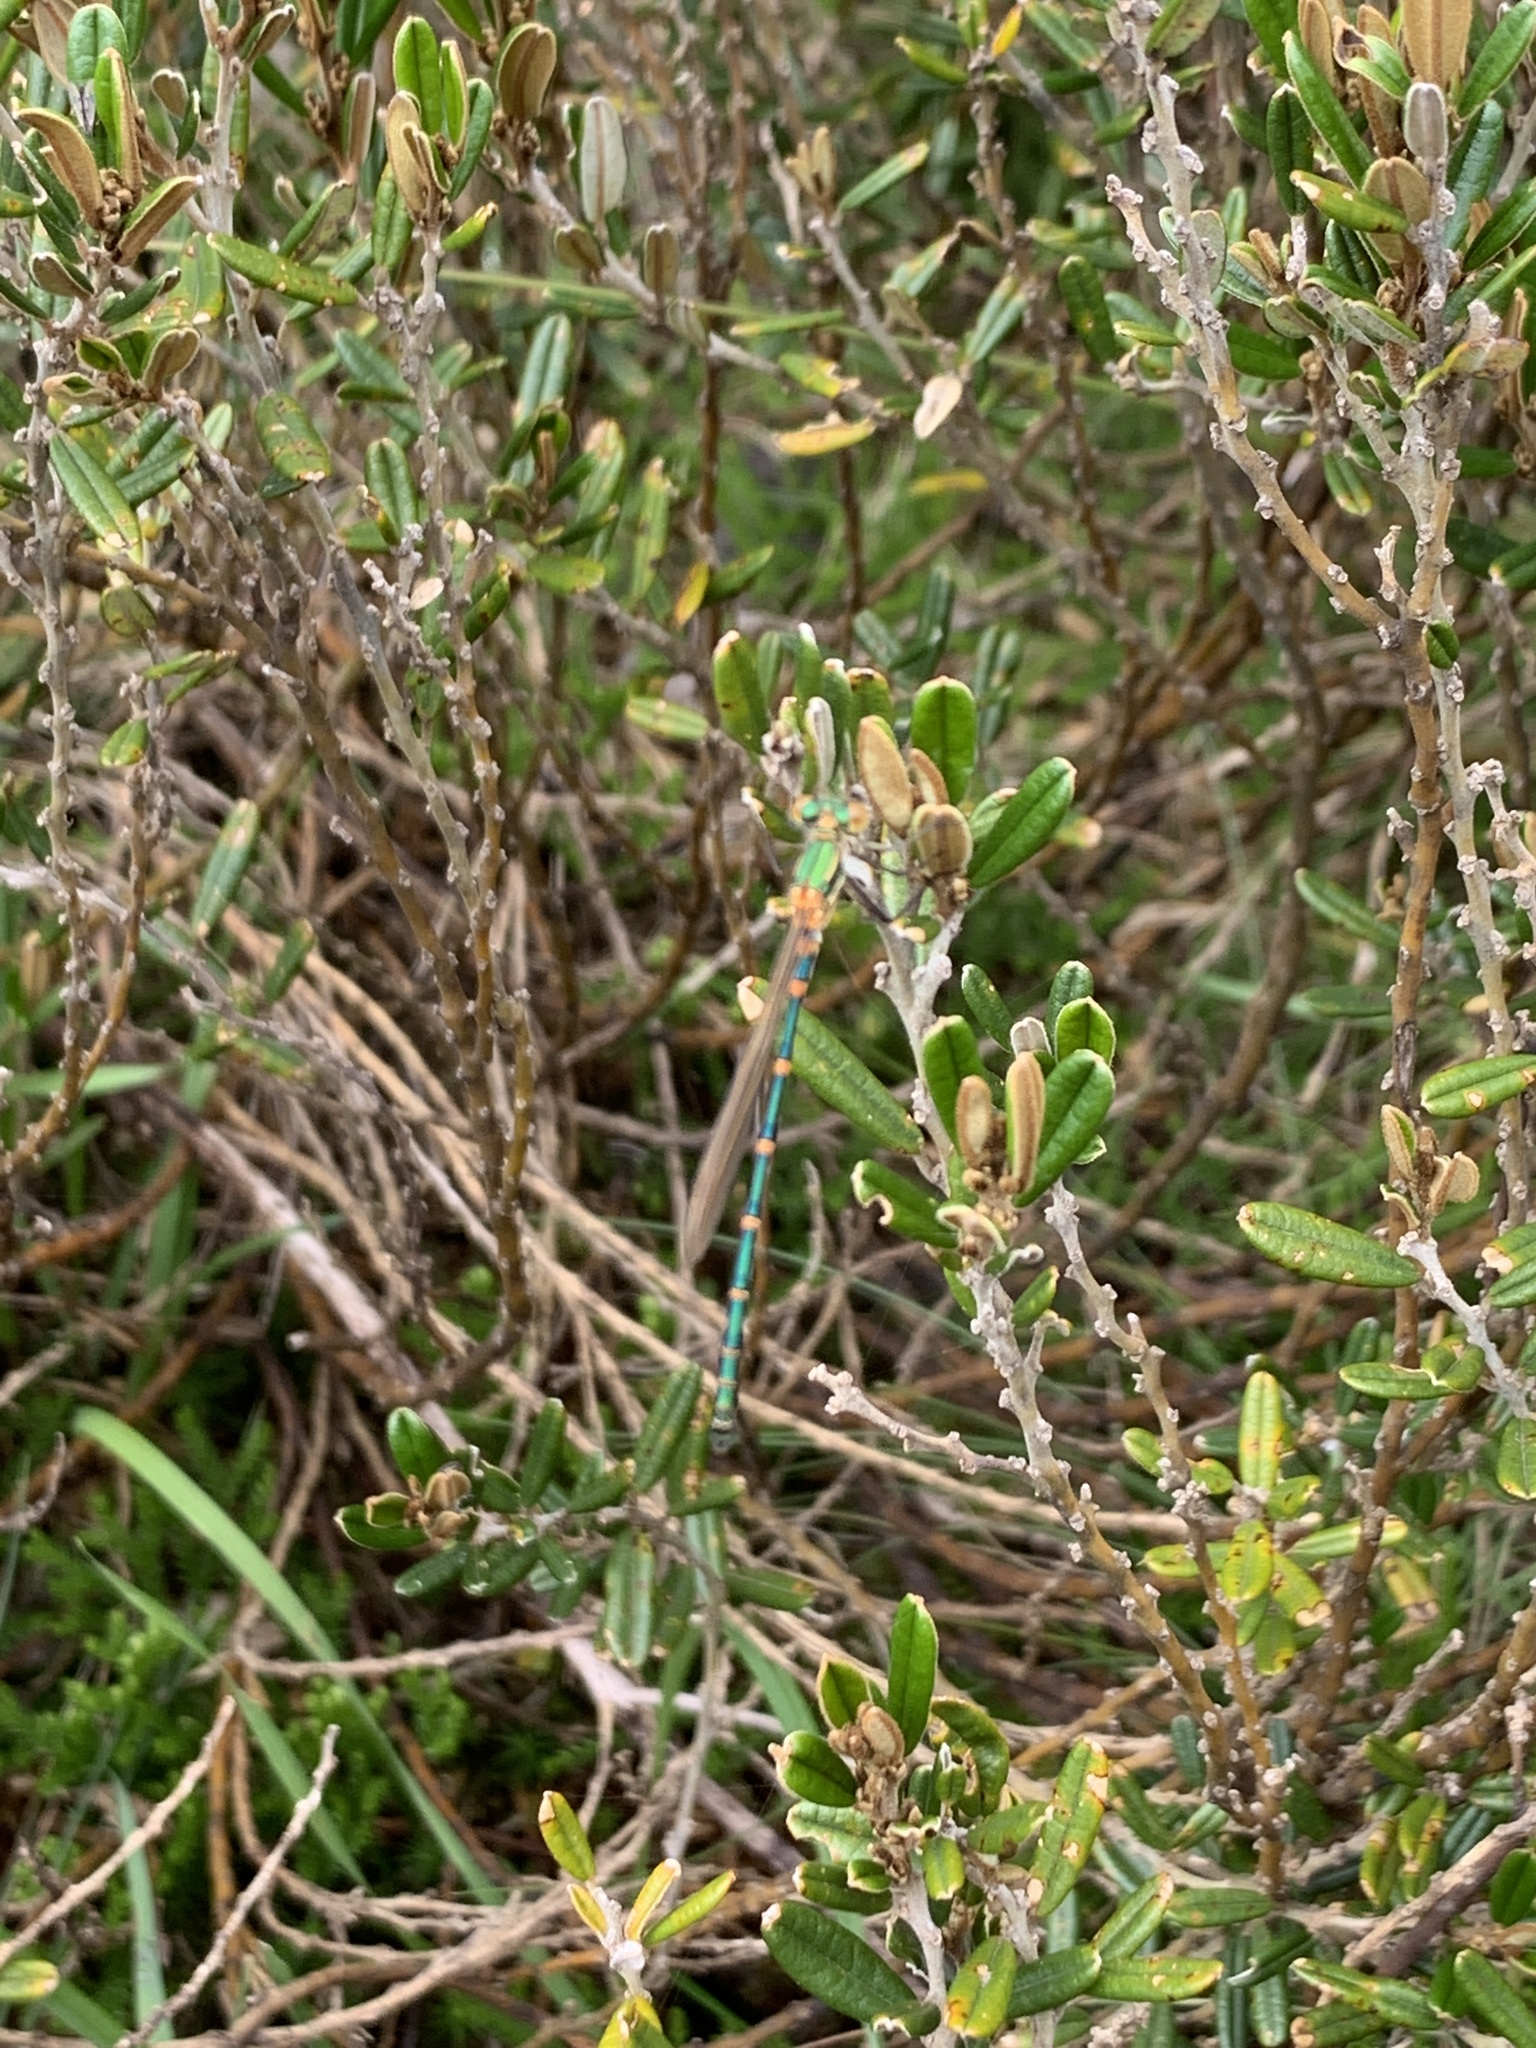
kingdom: Animalia
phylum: Arthropoda
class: Insecta
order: Odonata
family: Lestidae
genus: Austrolestes
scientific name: Austrolestes cingulatus
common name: Metallic ringtail
